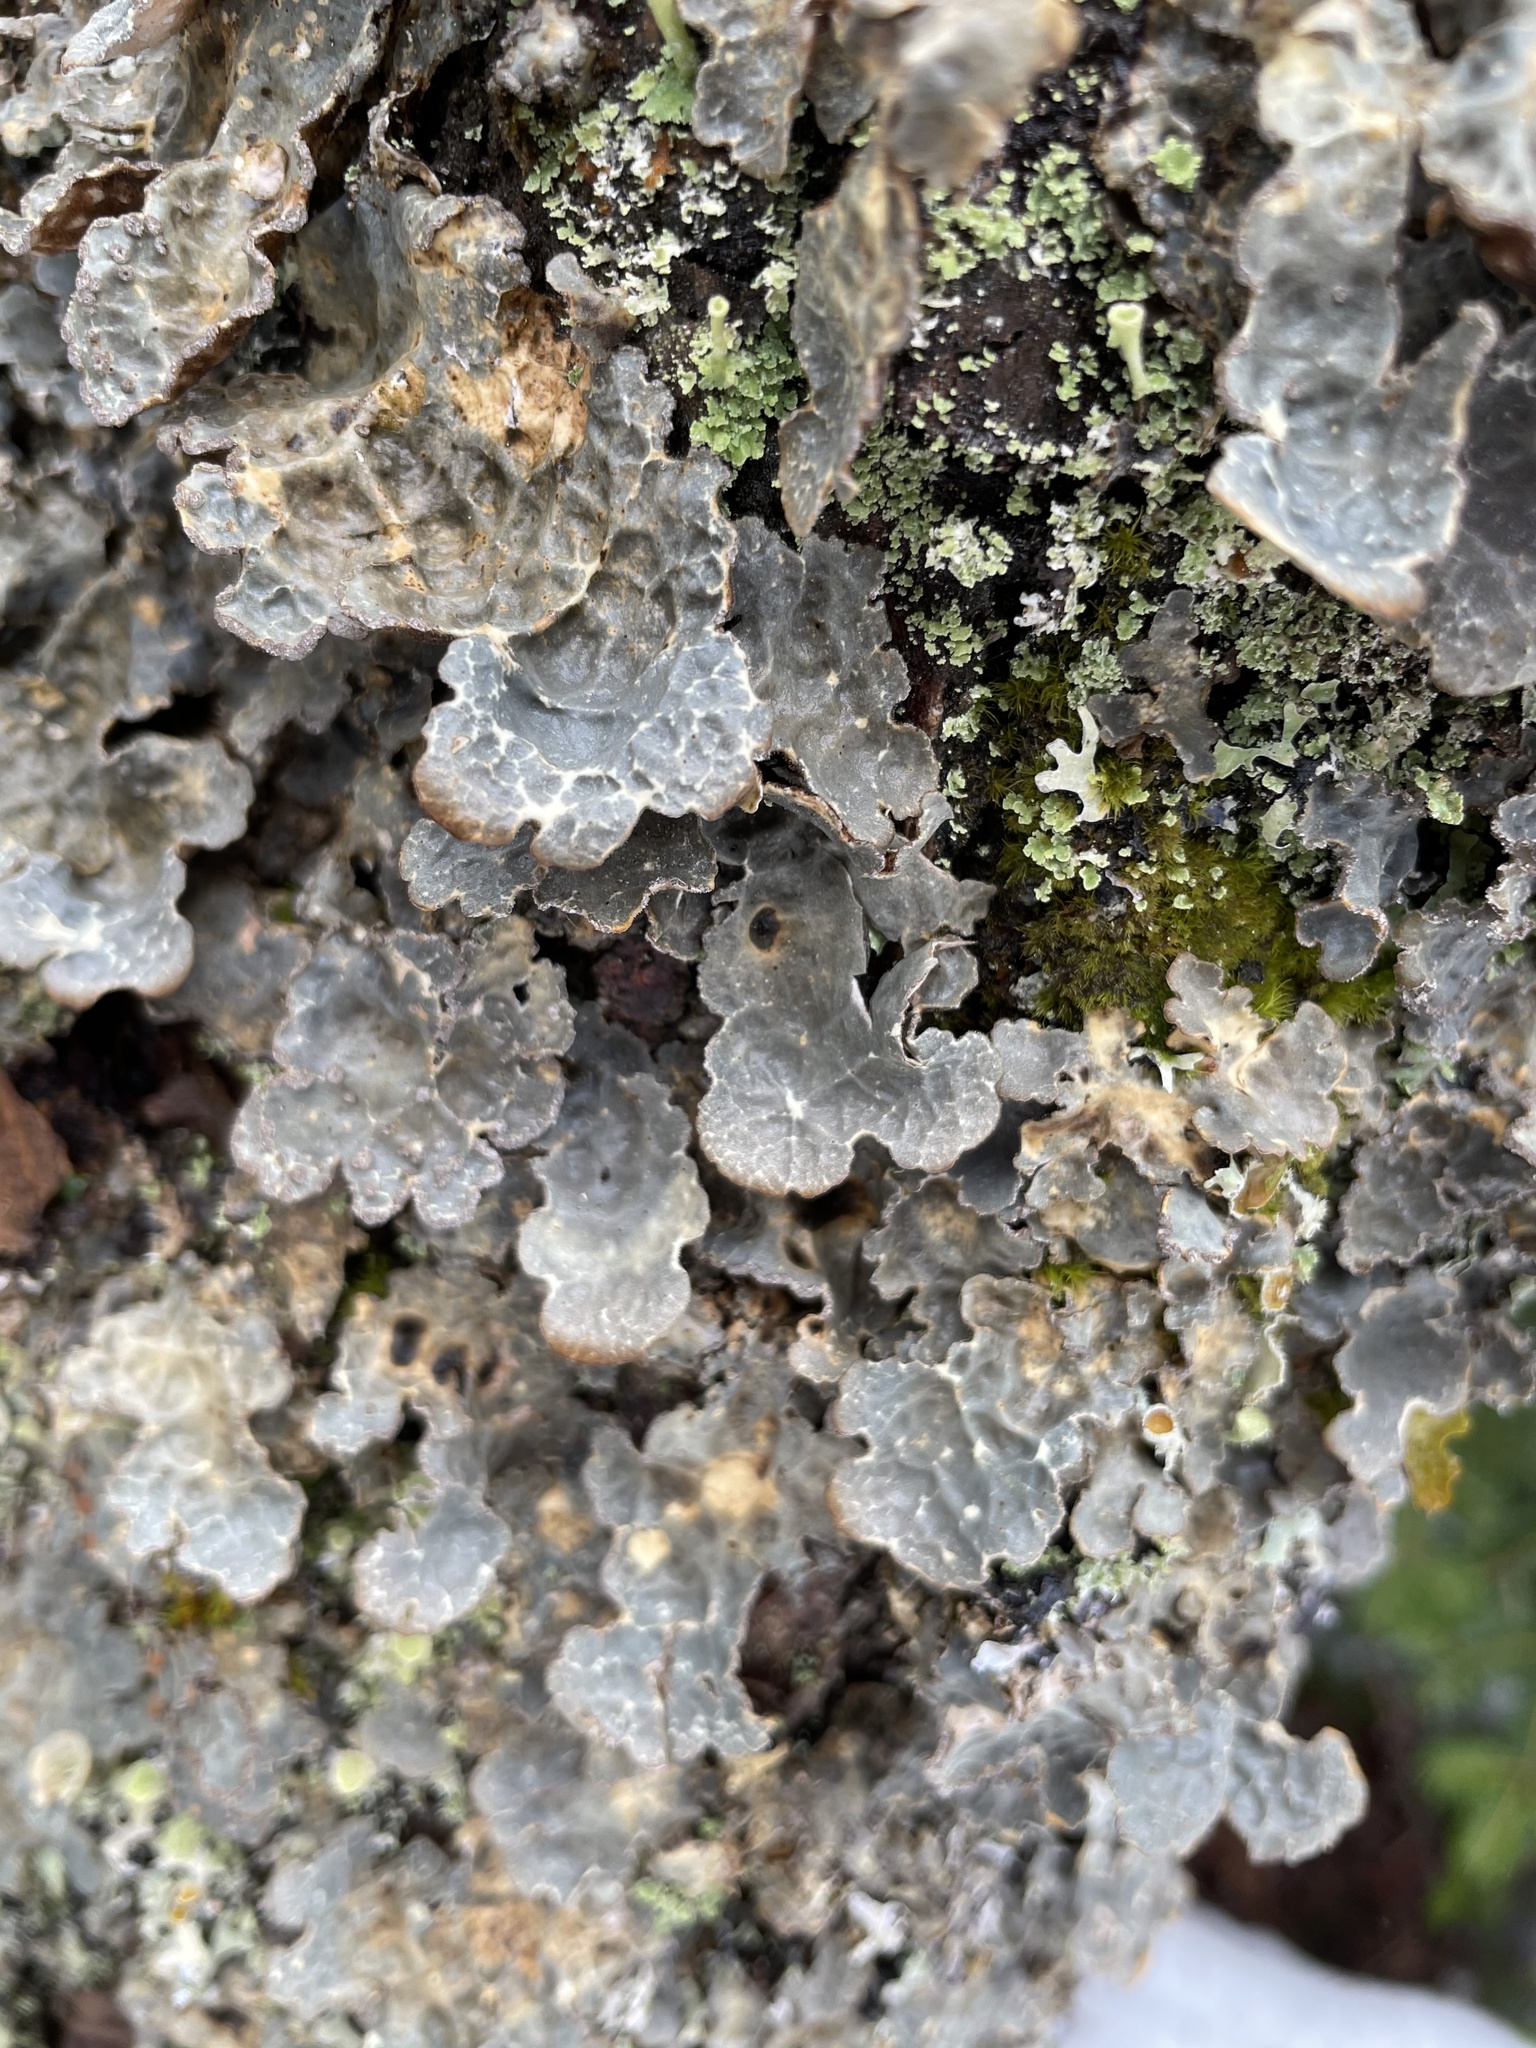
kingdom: Fungi
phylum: Ascomycota
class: Lecanoromycetes
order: Peltigerales
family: Lobariaceae
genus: Lobarina
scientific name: Lobarina scrobiculata
